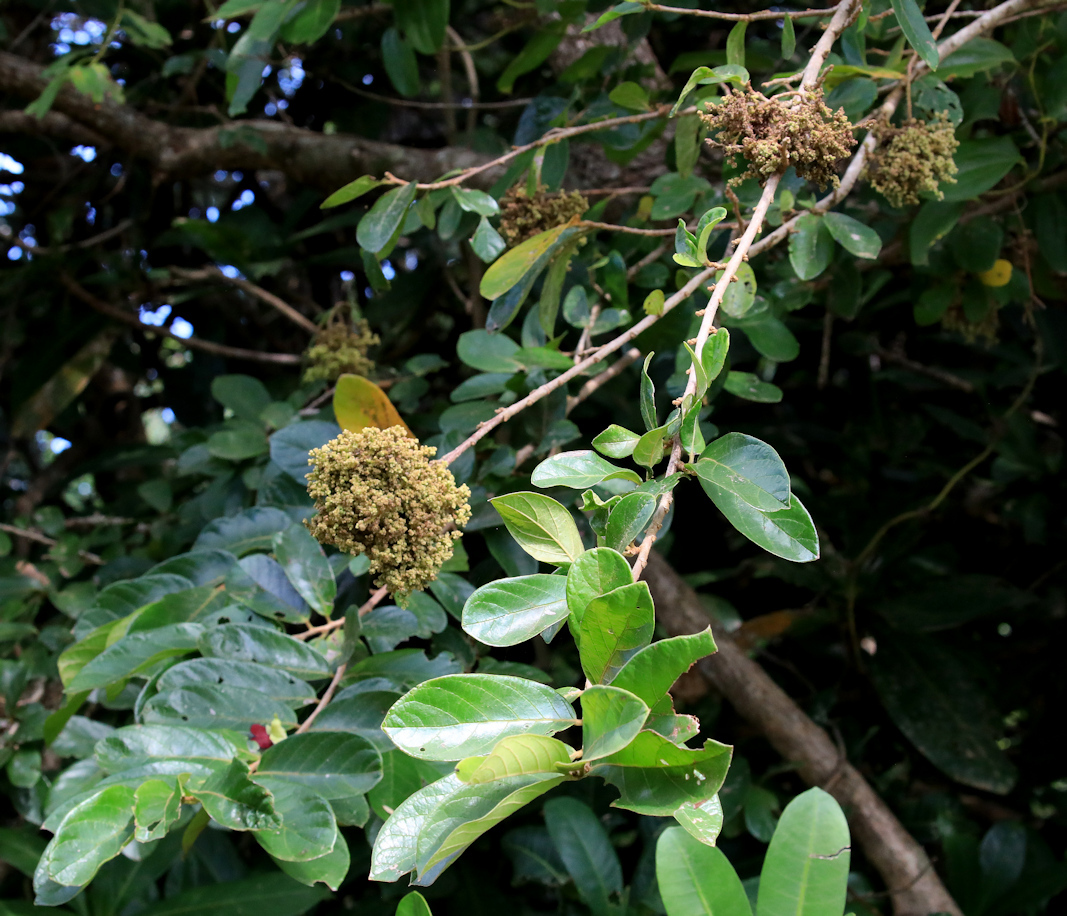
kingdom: Plantae
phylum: Tracheophyta
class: Magnoliopsida
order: Malpighiales
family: Phyllanthaceae
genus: Antidesma
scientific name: Antidesma venosum
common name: Tassel-berry
